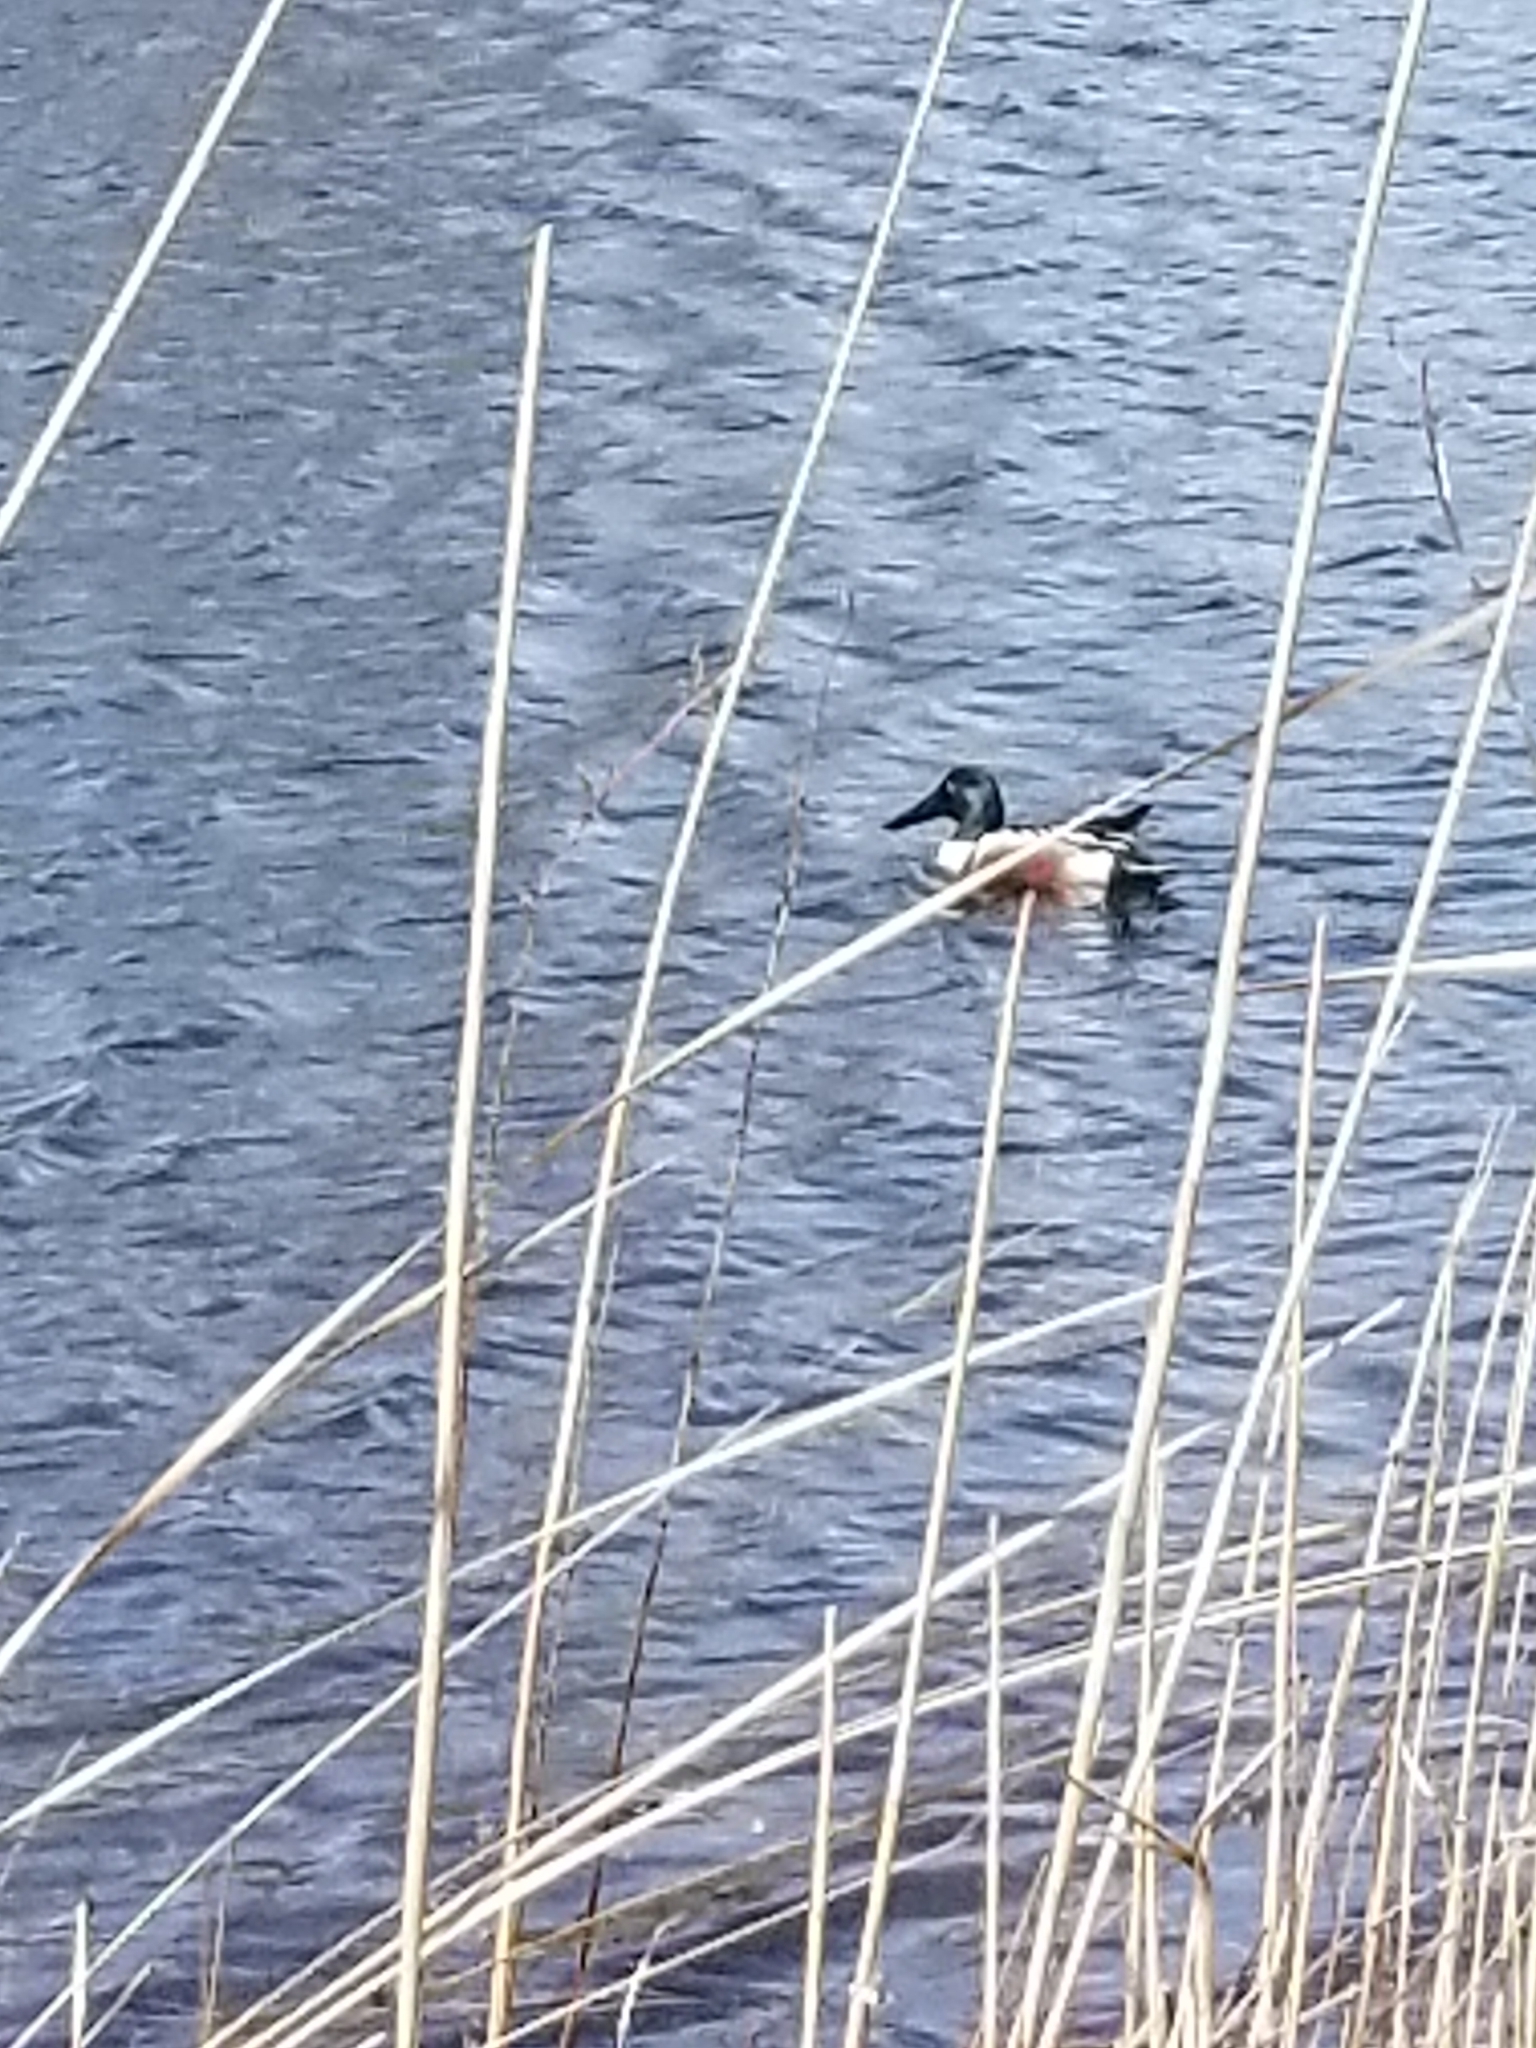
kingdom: Animalia
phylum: Chordata
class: Aves
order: Anseriformes
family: Anatidae
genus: Spatula
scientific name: Spatula clypeata
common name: Northern shoveler
